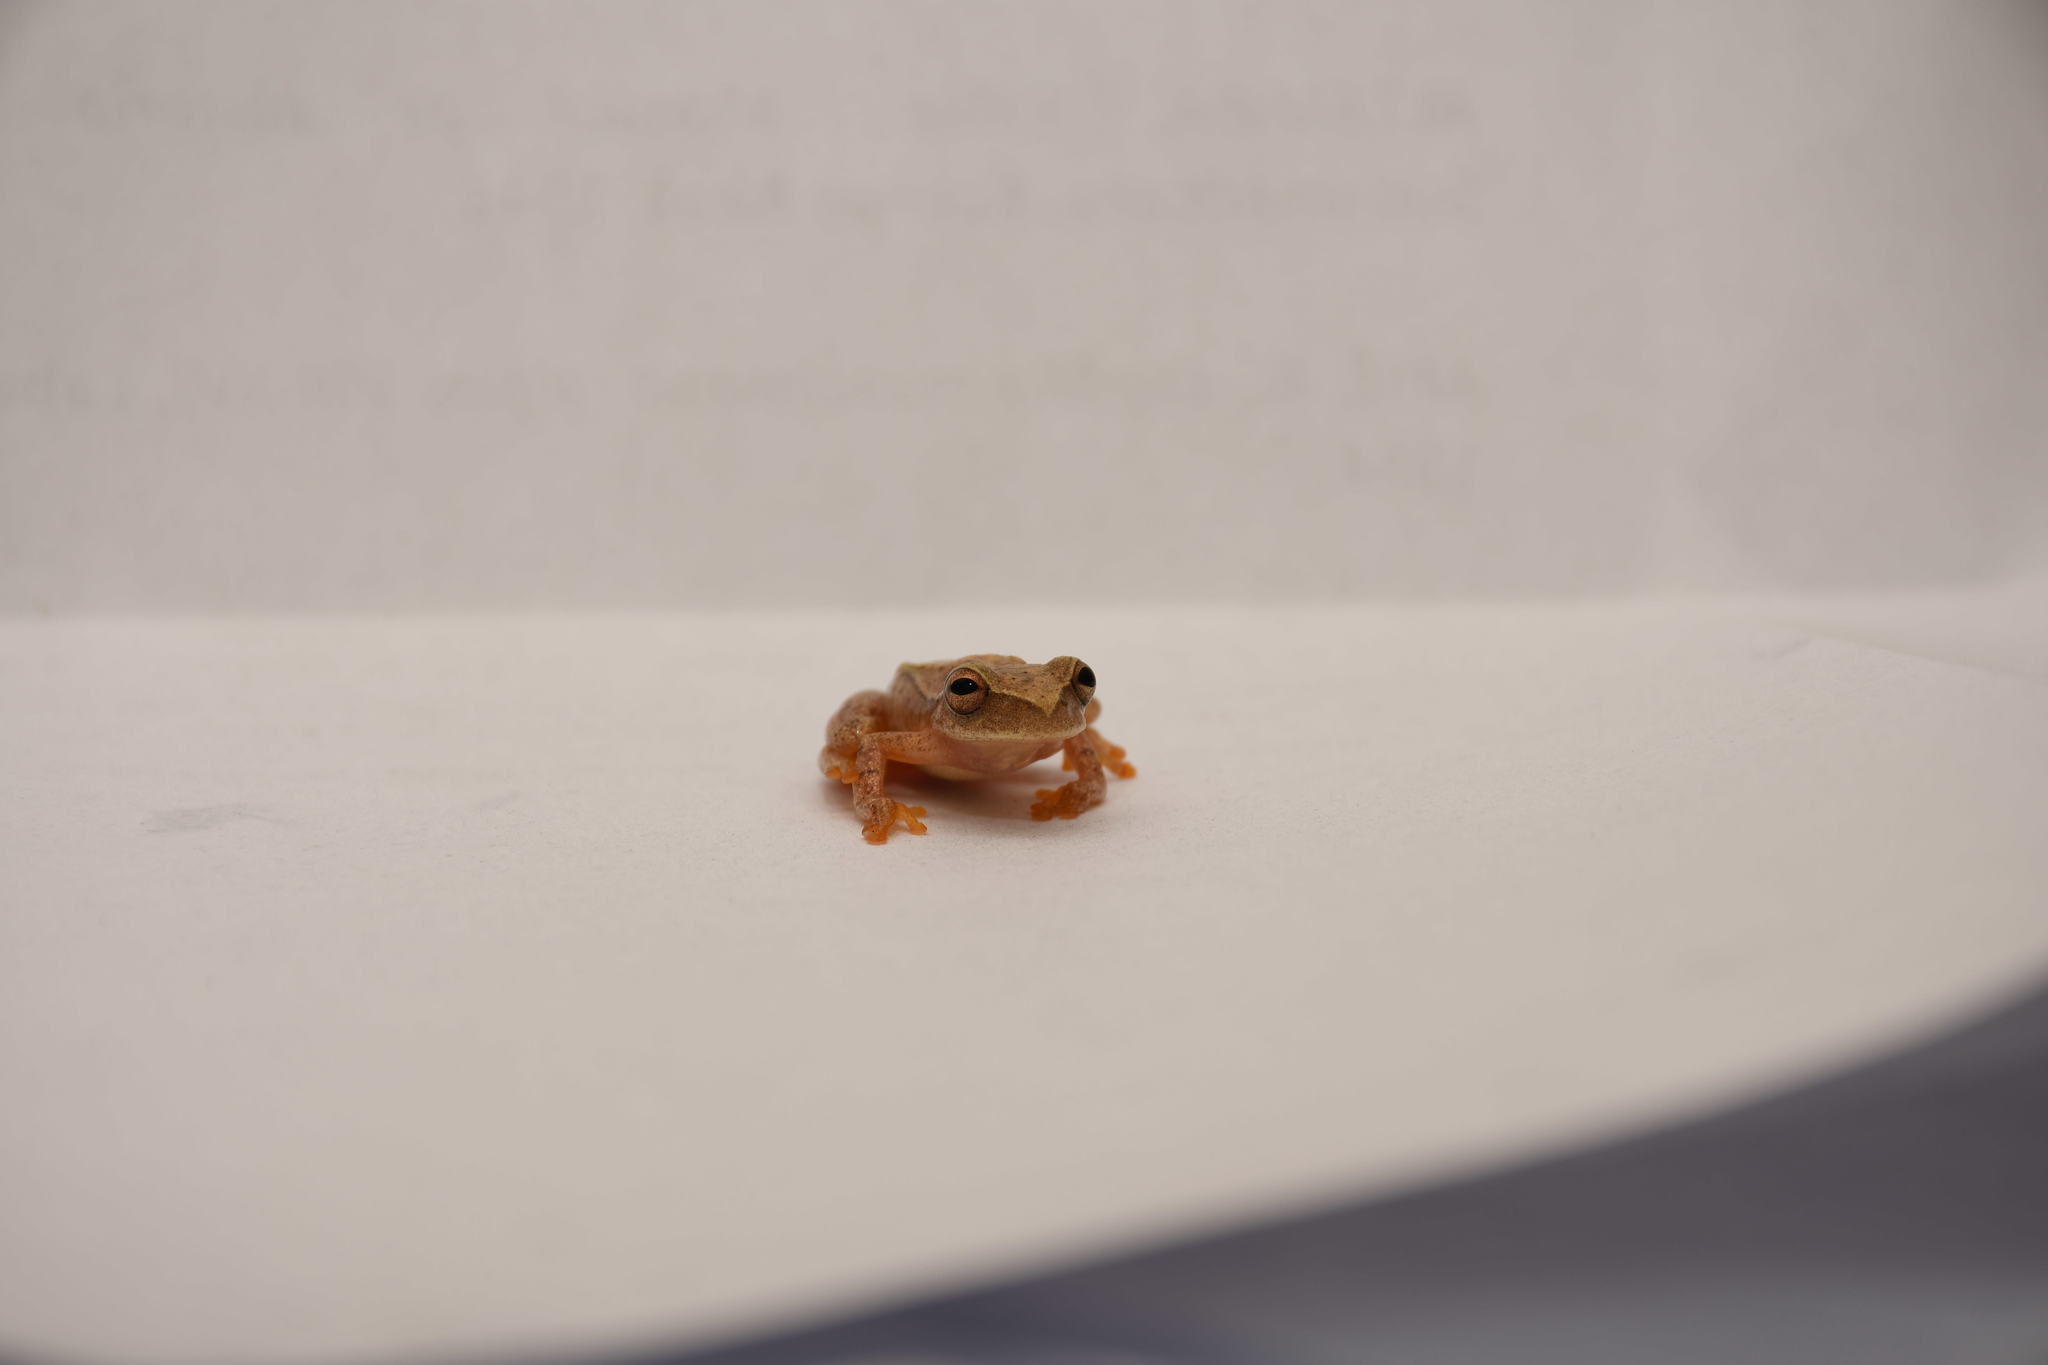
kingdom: Animalia
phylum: Chordata
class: Amphibia
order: Anura
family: Hylidae
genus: Dendropsophus
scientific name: Dendropsophus microcephalus
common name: Small-headed treefrog
